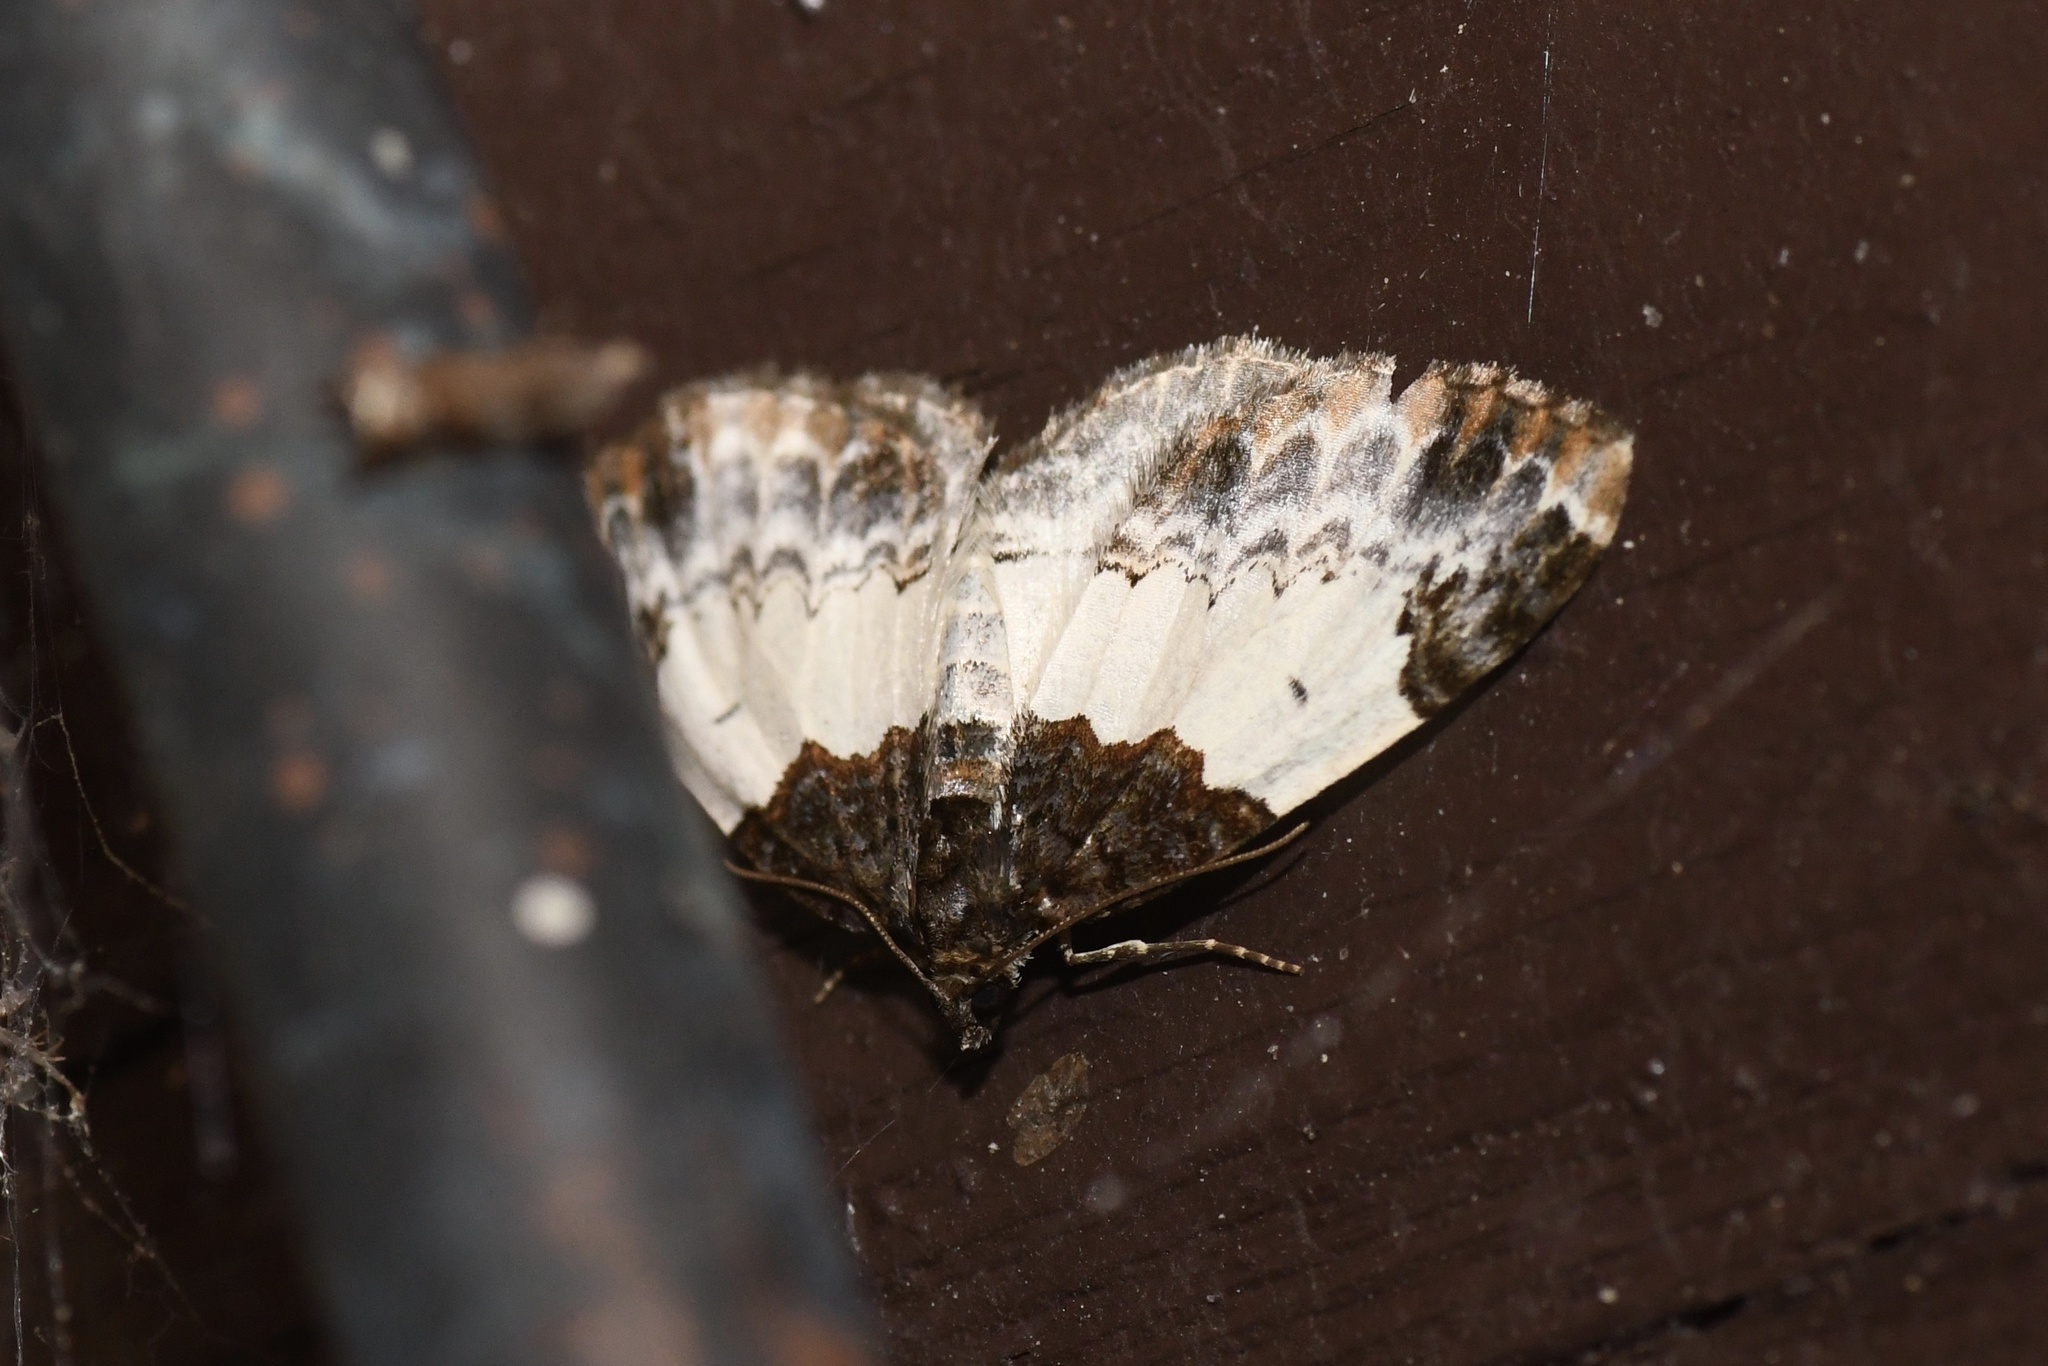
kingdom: Animalia
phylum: Arthropoda
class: Insecta
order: Lepidoptera
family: Geometridae
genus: Mesoleuca
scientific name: Mesoleuca ruficillata
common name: White-ribboned carpet moth
